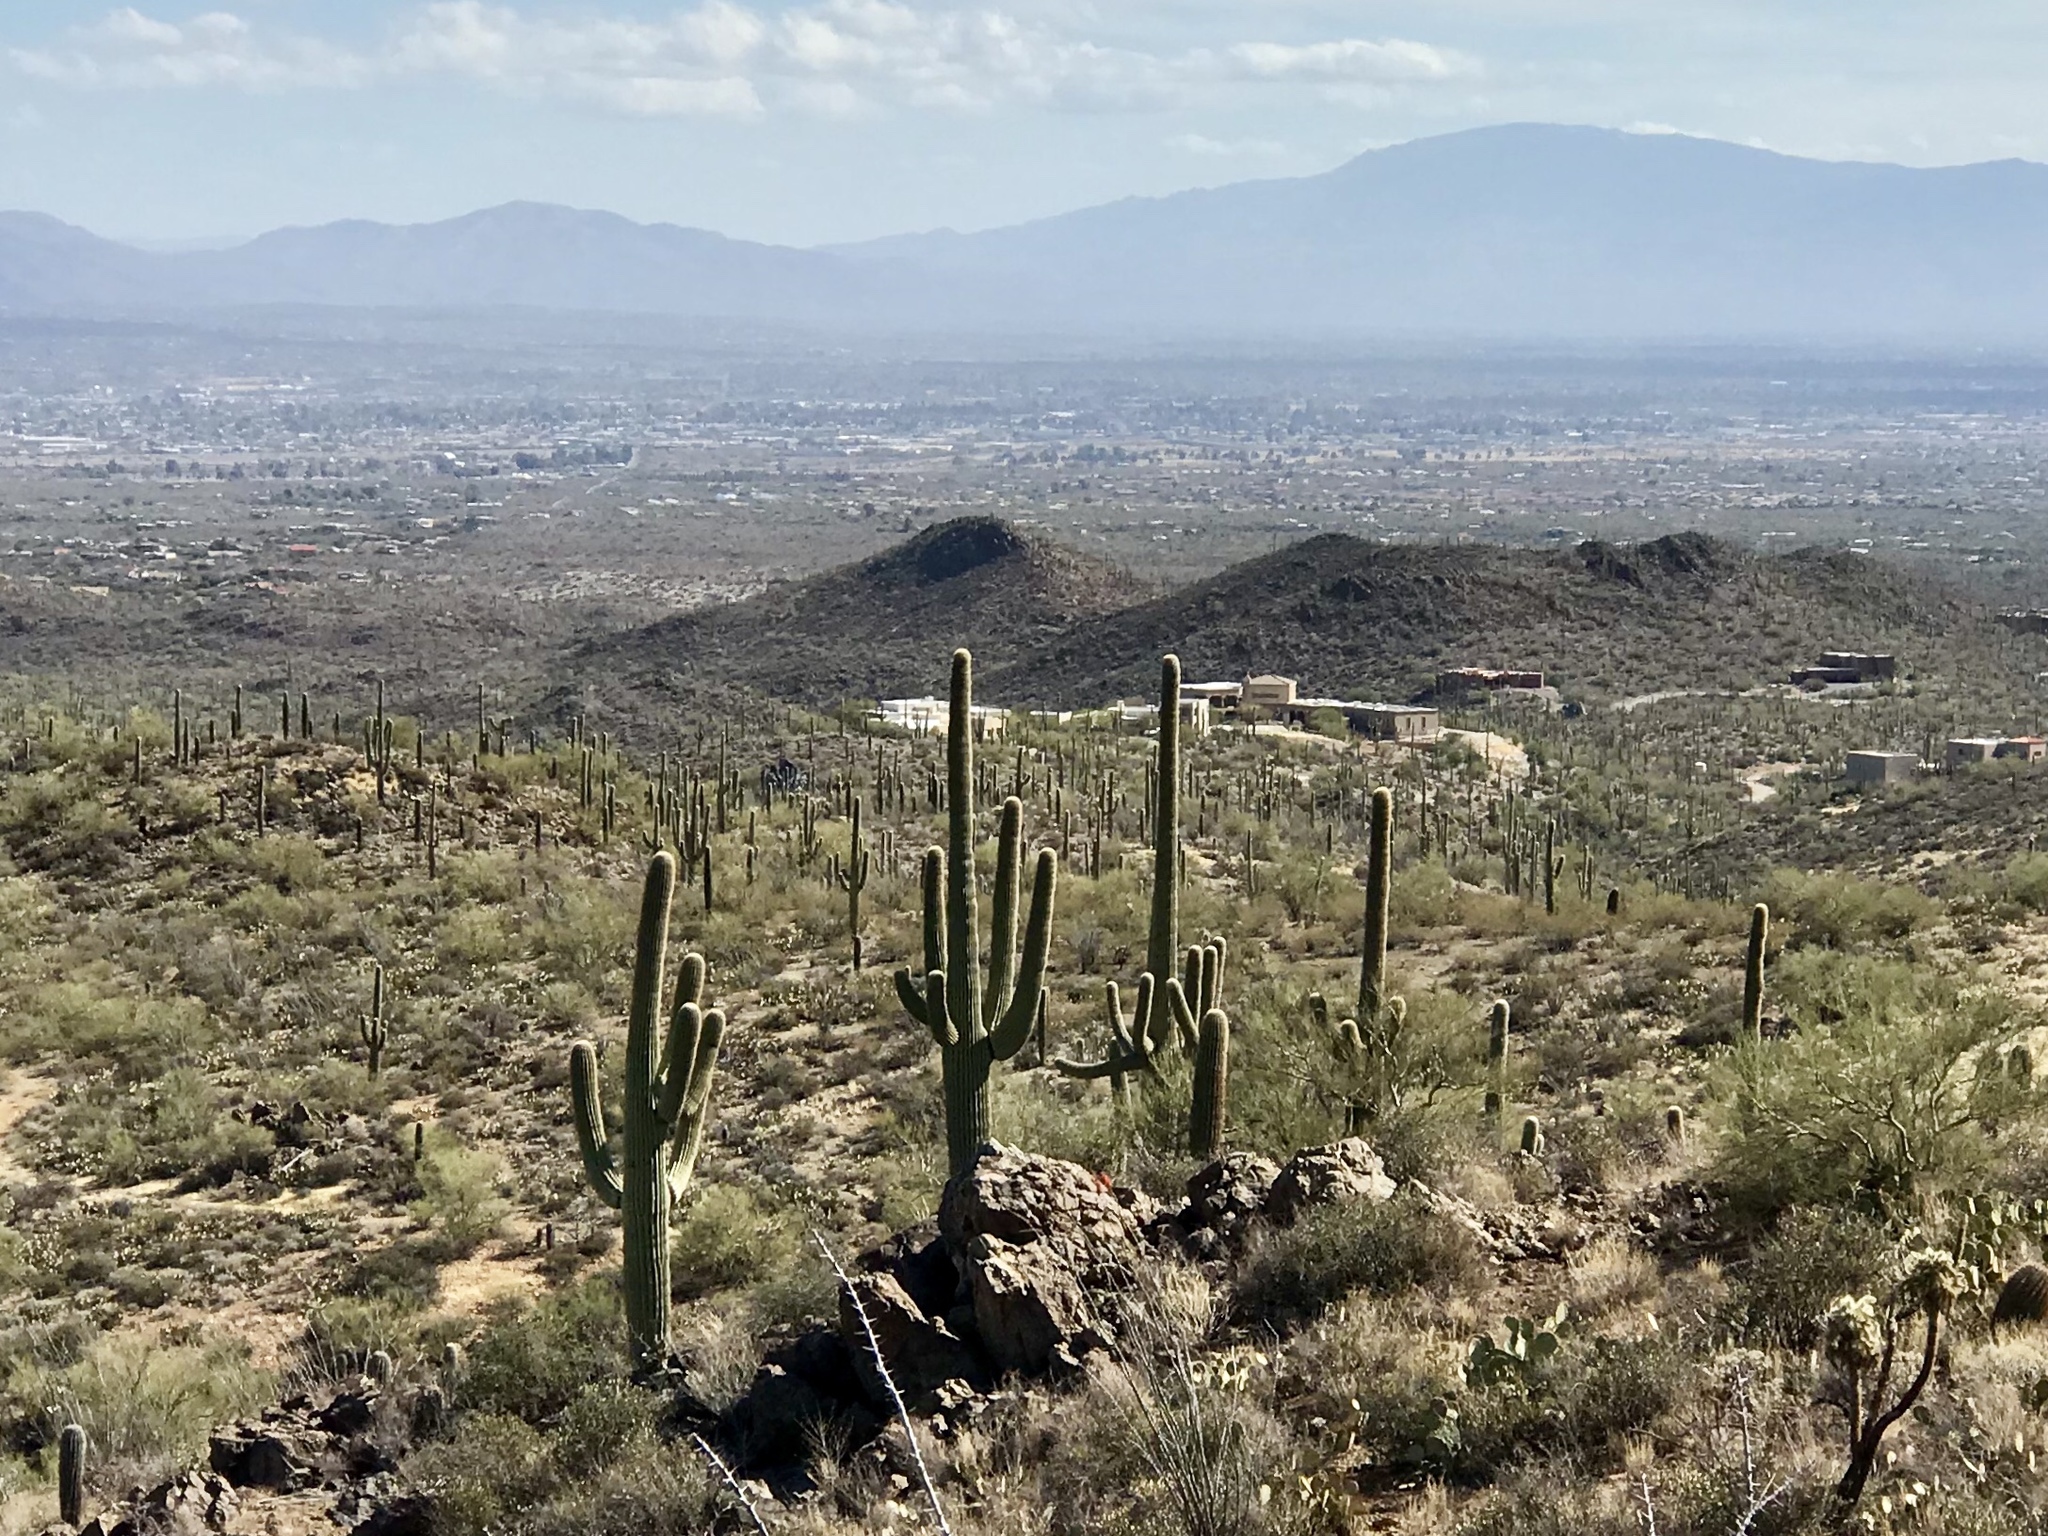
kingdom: Plantae
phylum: Tracheophyta
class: Magnoliopsida
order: Caryophyllales
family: Cactaceae
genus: Carnegiea
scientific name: Carnegiea gigantea
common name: Saguaro
